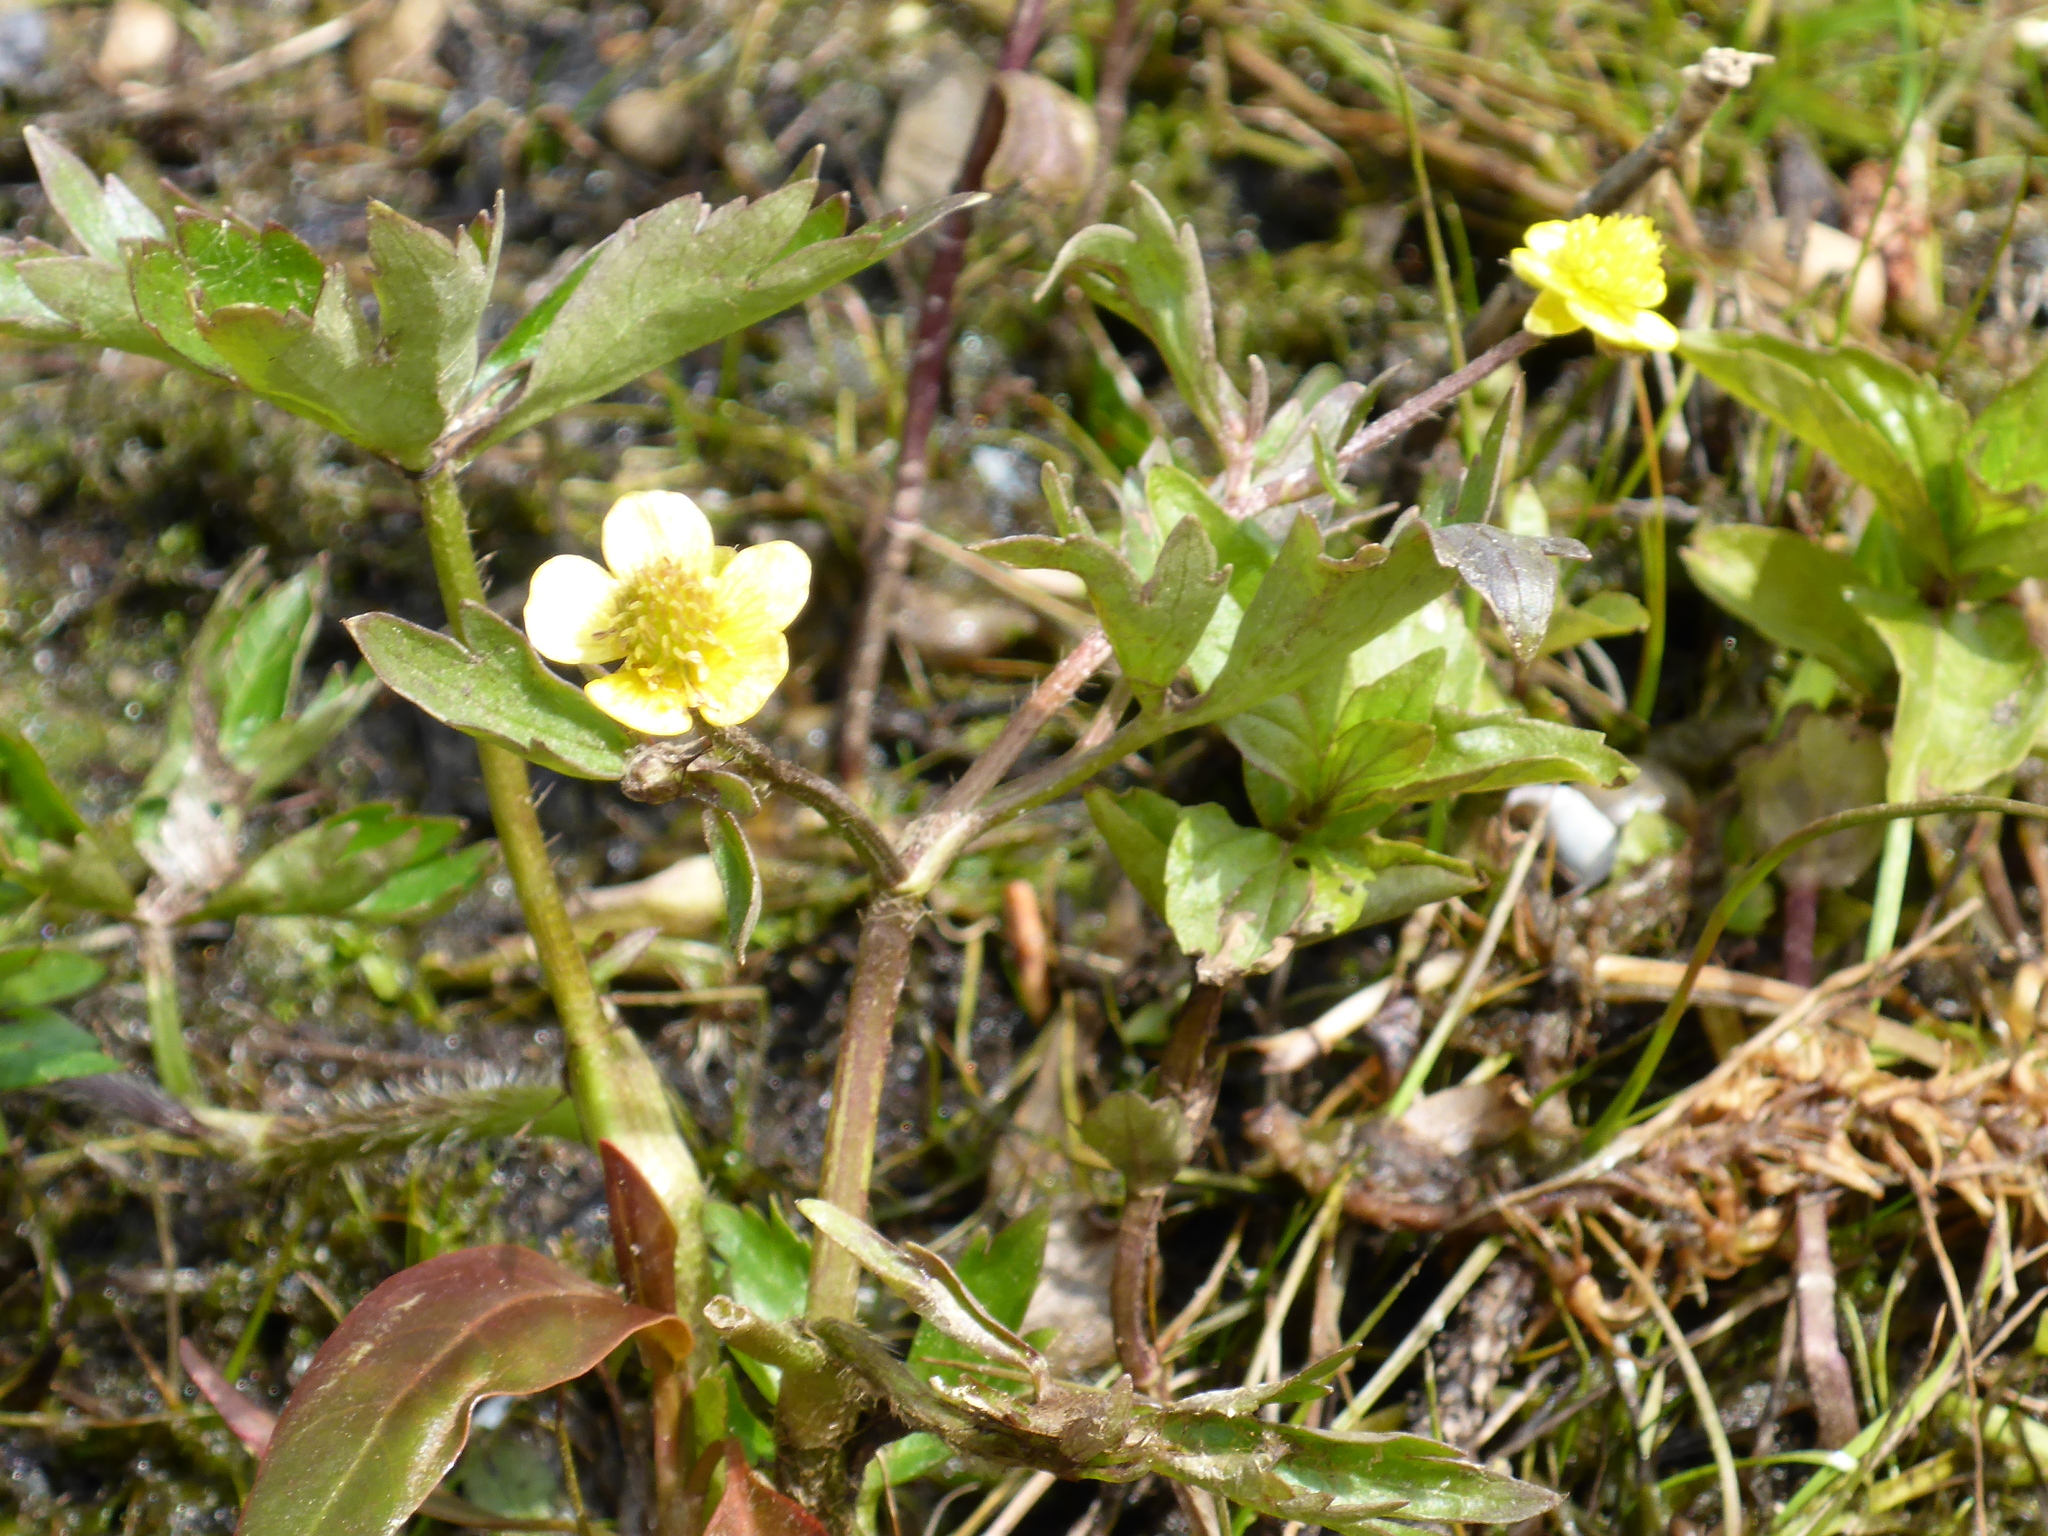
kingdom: Plantae
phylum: Tracheophyta
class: Magnoliopsida
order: Ranunculales
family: Ranunculaceae
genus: Ranunculus
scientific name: Ranunculus repens
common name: Creeping buttercup
